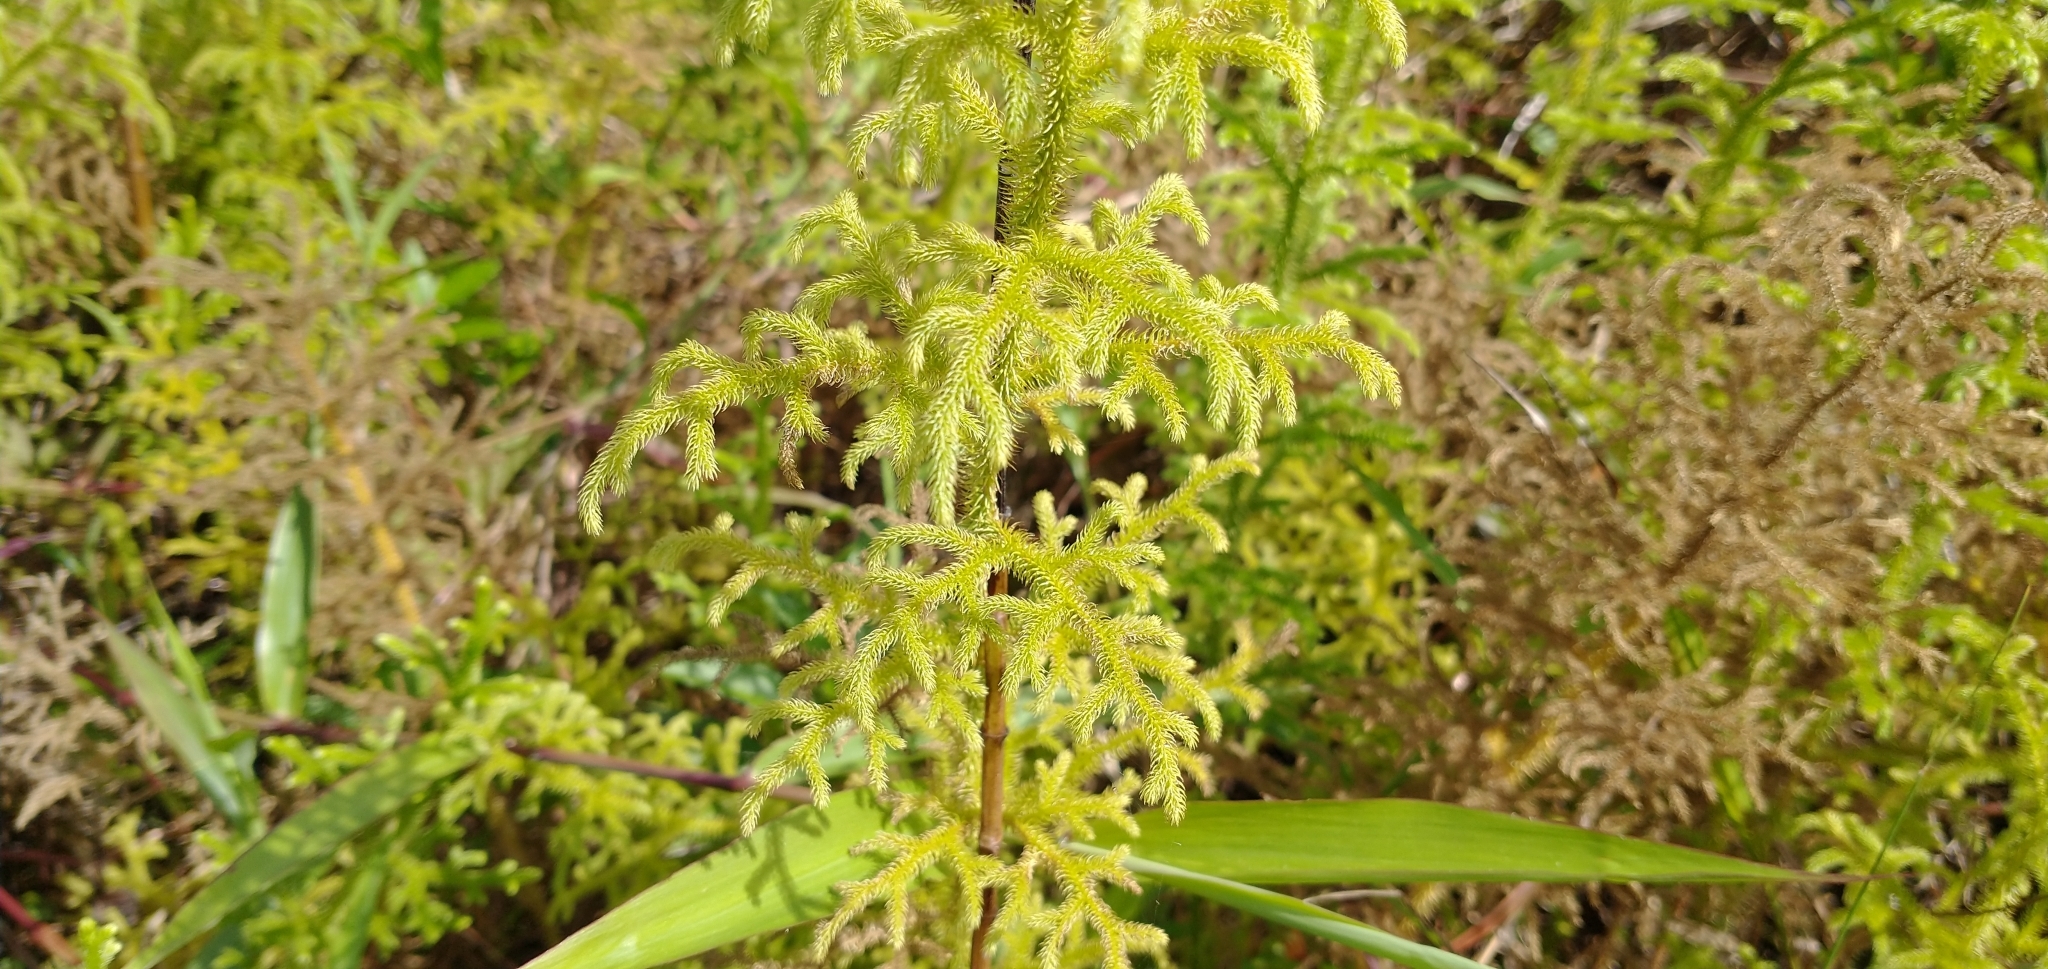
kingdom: Plantae
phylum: Tracheophyta
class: Lycopodiopsida
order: Lycopodiales
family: Lycopodiaceae
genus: Palhinhaea
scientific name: Palhinhaea cernua
